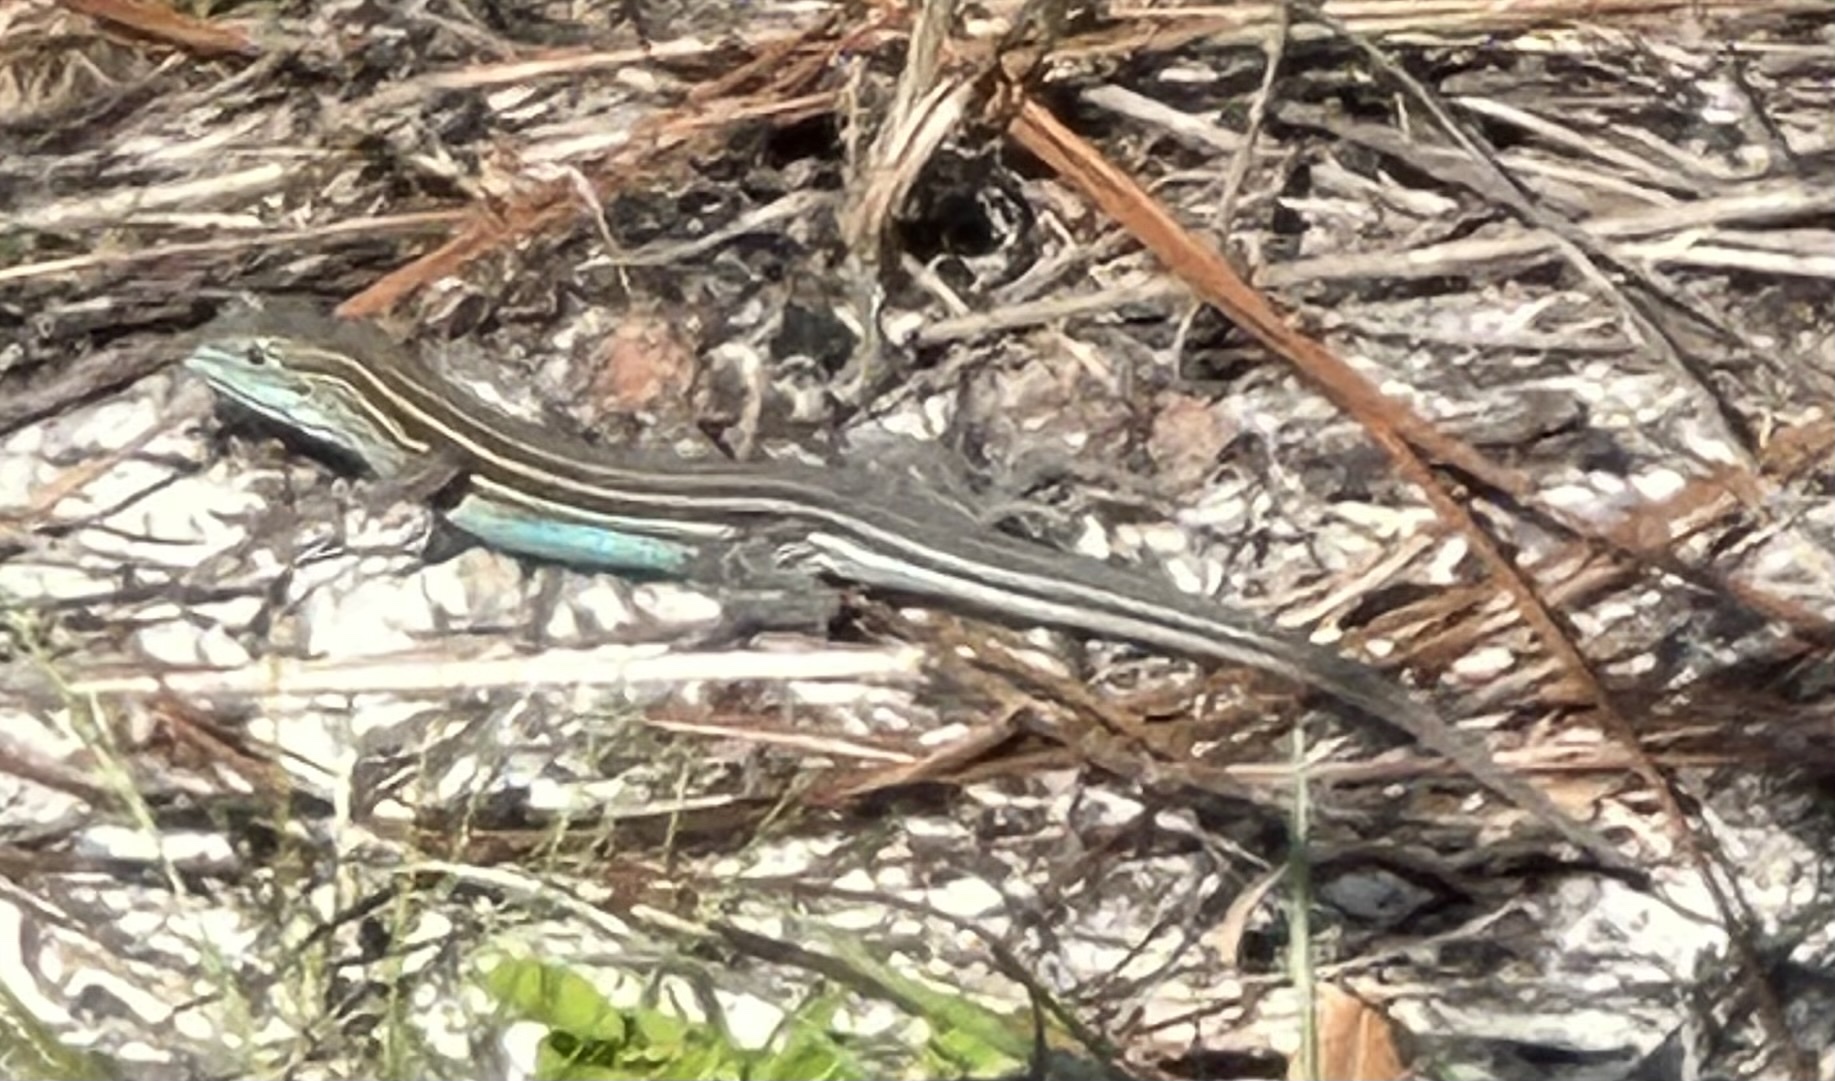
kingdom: Animalia
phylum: Chordata
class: Squamata
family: Teiidae
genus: Aspidoscelis
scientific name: Aspidoscelis sexlineatus
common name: Six-lined racerunner
